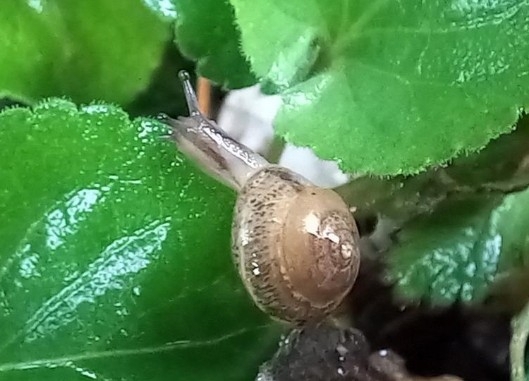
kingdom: Animalia
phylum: Mollusca
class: Gastropoda
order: Stylommatophora
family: Hygromiidae
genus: Hygromia
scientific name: Hygromia cinctella
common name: Girdled snail
